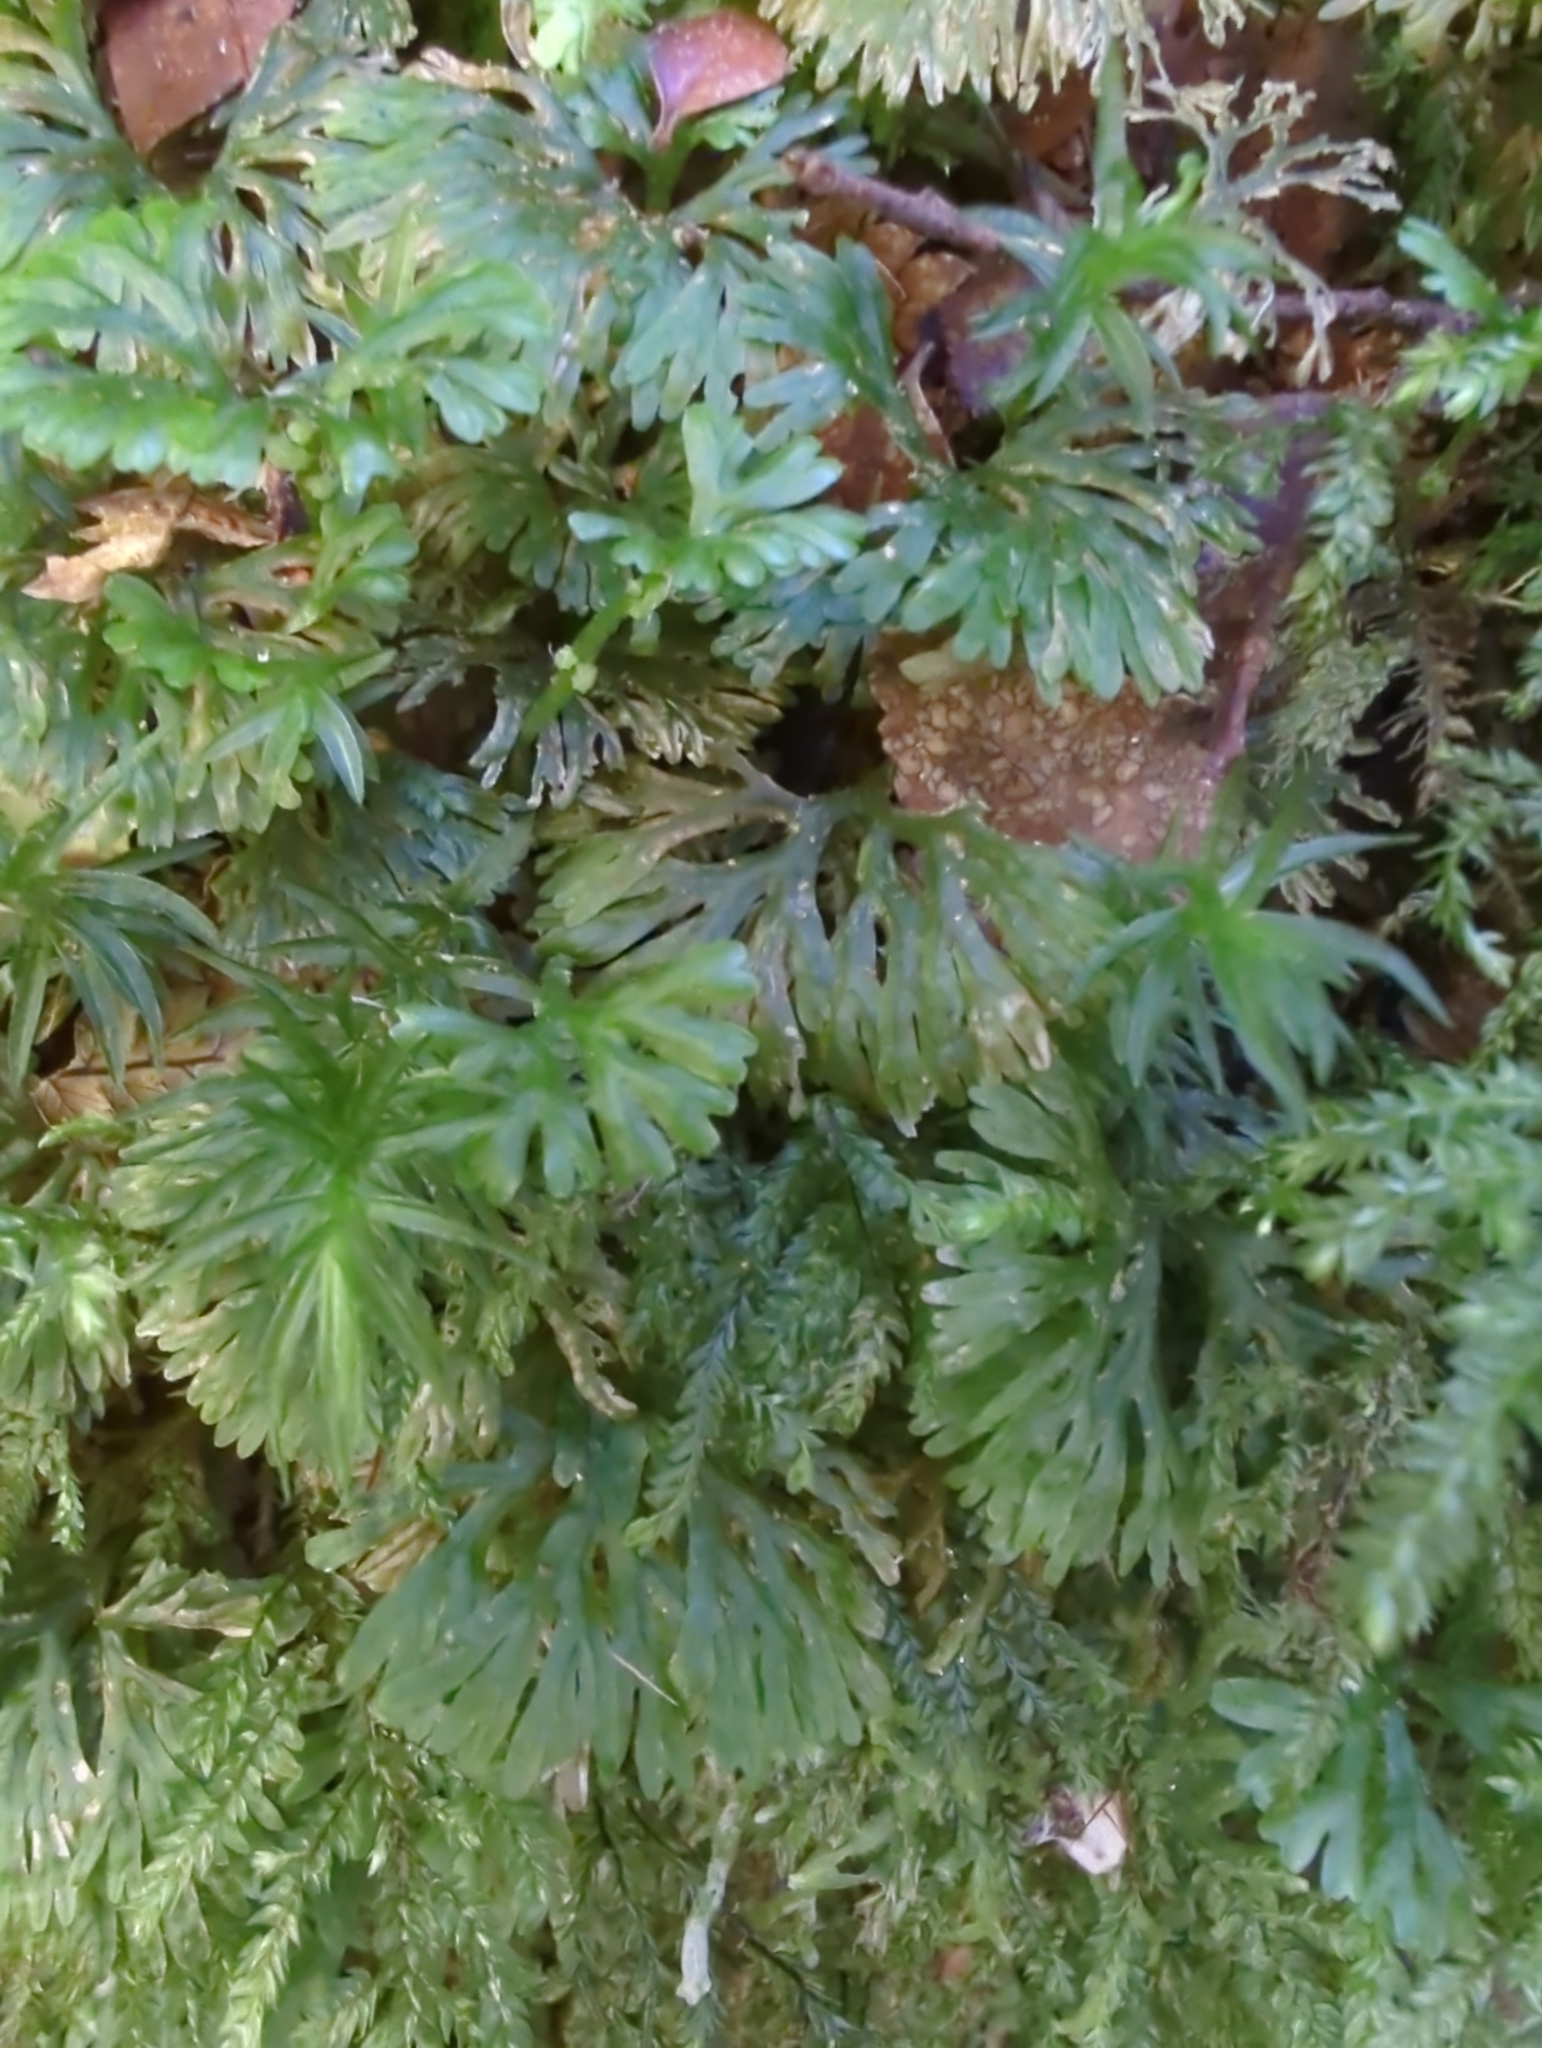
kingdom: Plantae
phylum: Marchantiophyta
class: Jungermanniopsida
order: Pallaviciniales
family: Hymenophytaceae
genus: Hymenophyton
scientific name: Hymenophyton flabellatum
